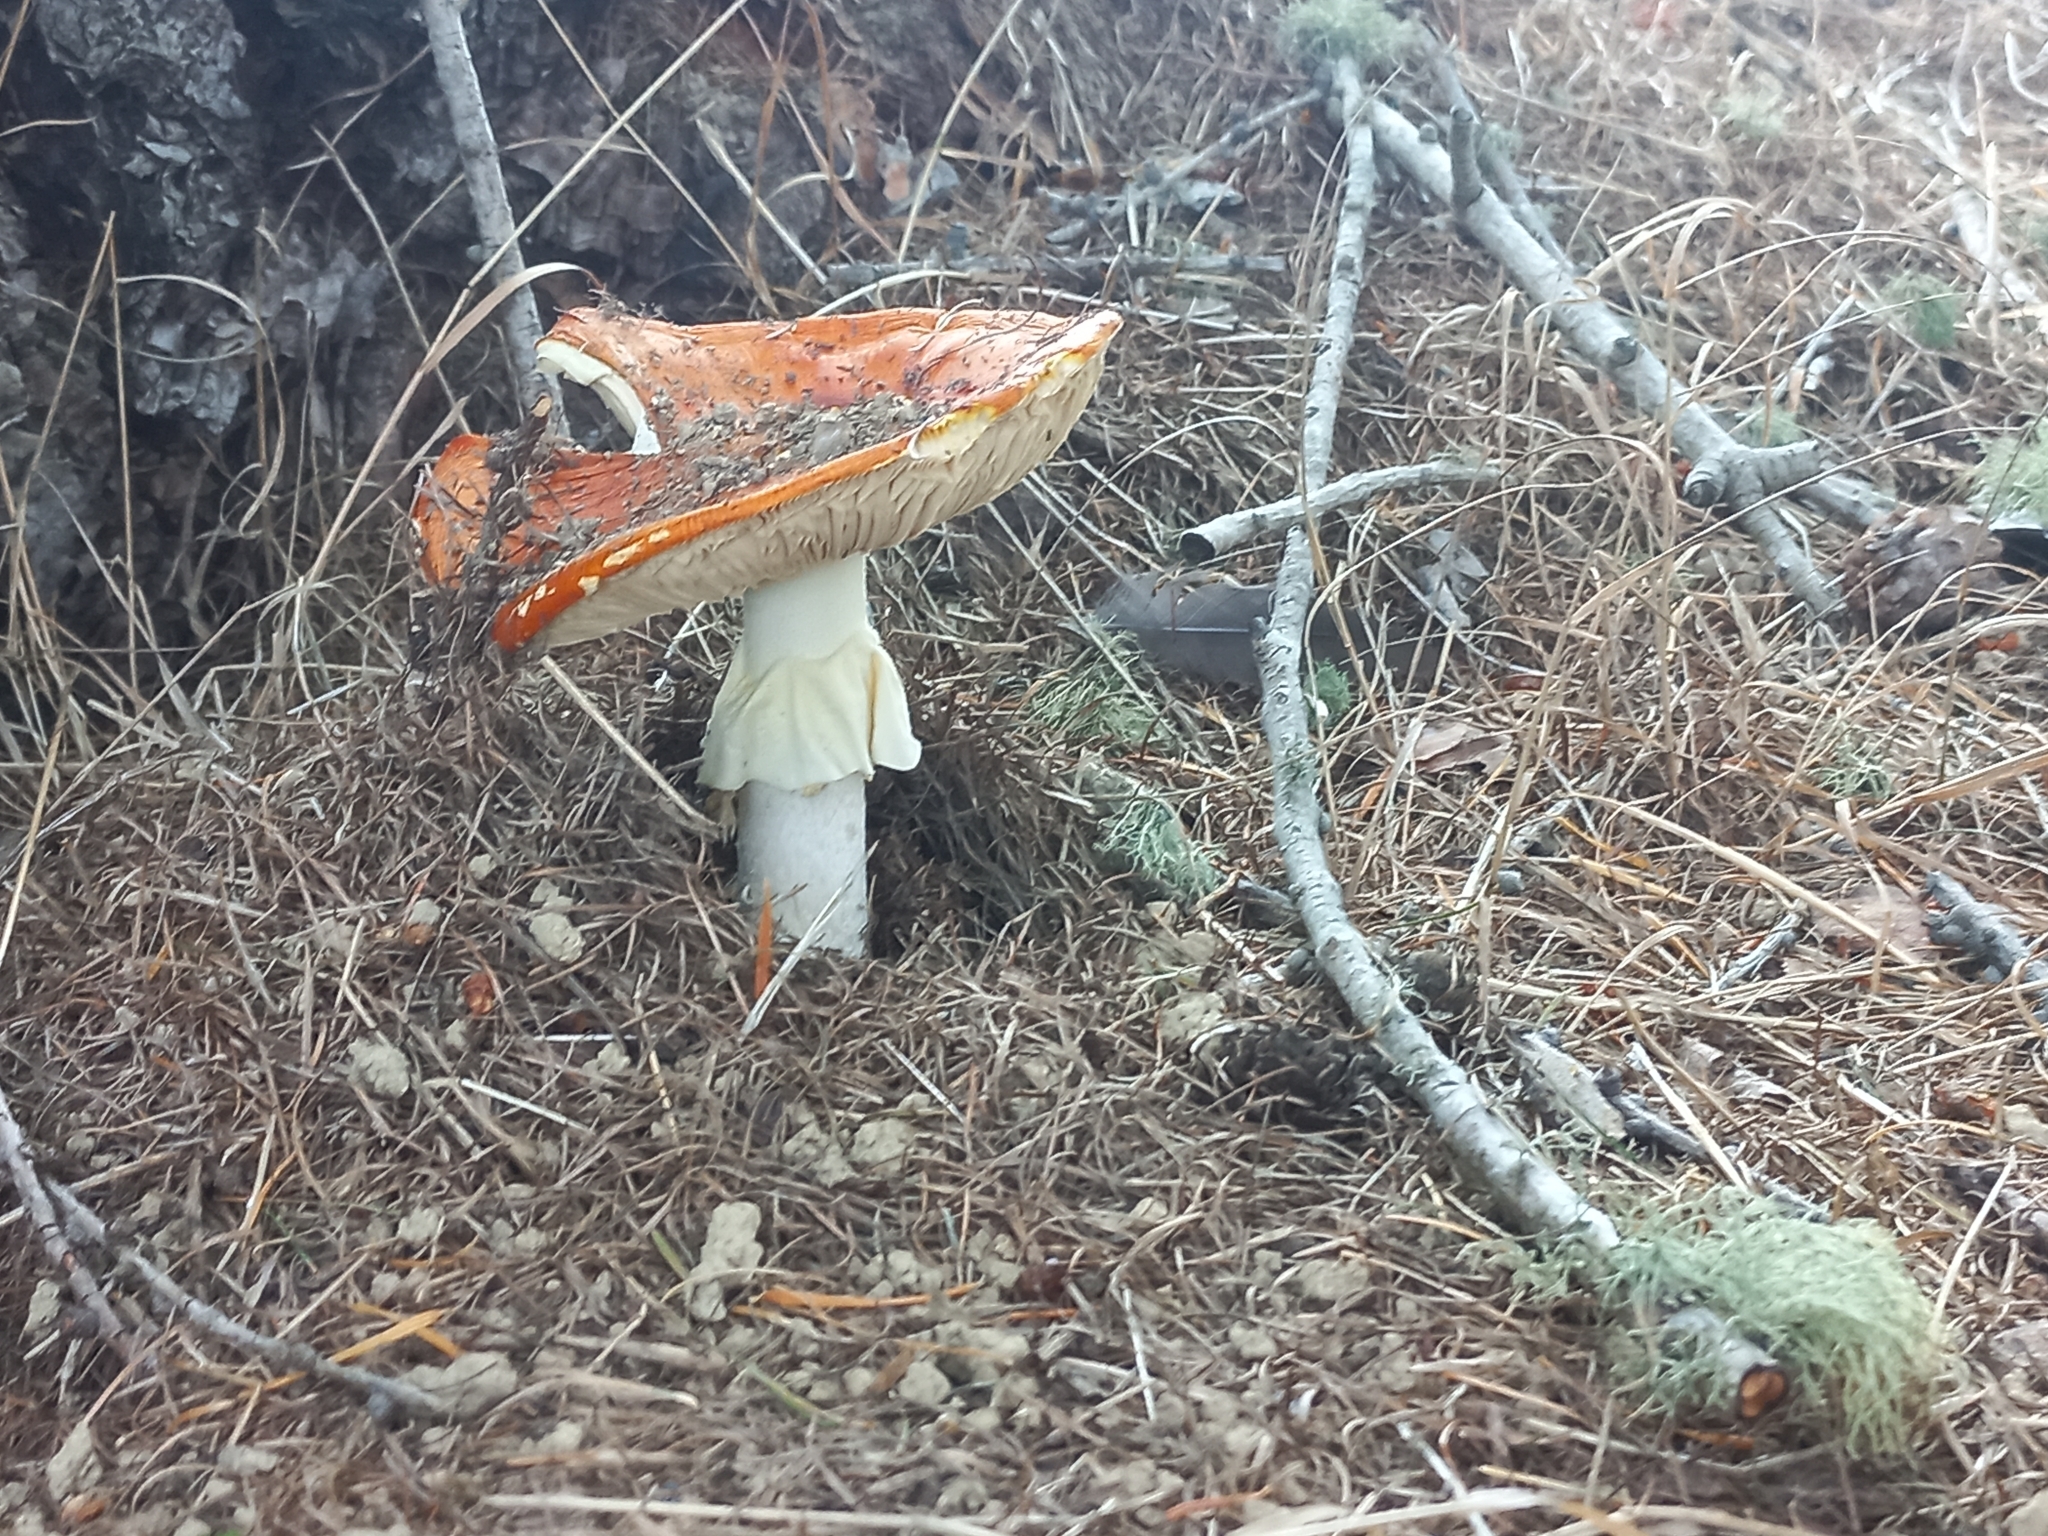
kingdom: Fungi
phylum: Basidiomycota
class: Agaricomycetes
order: Agaricales
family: Amanitaceae
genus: Amanita
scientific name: Amanita muscaria
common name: Fly agaric
